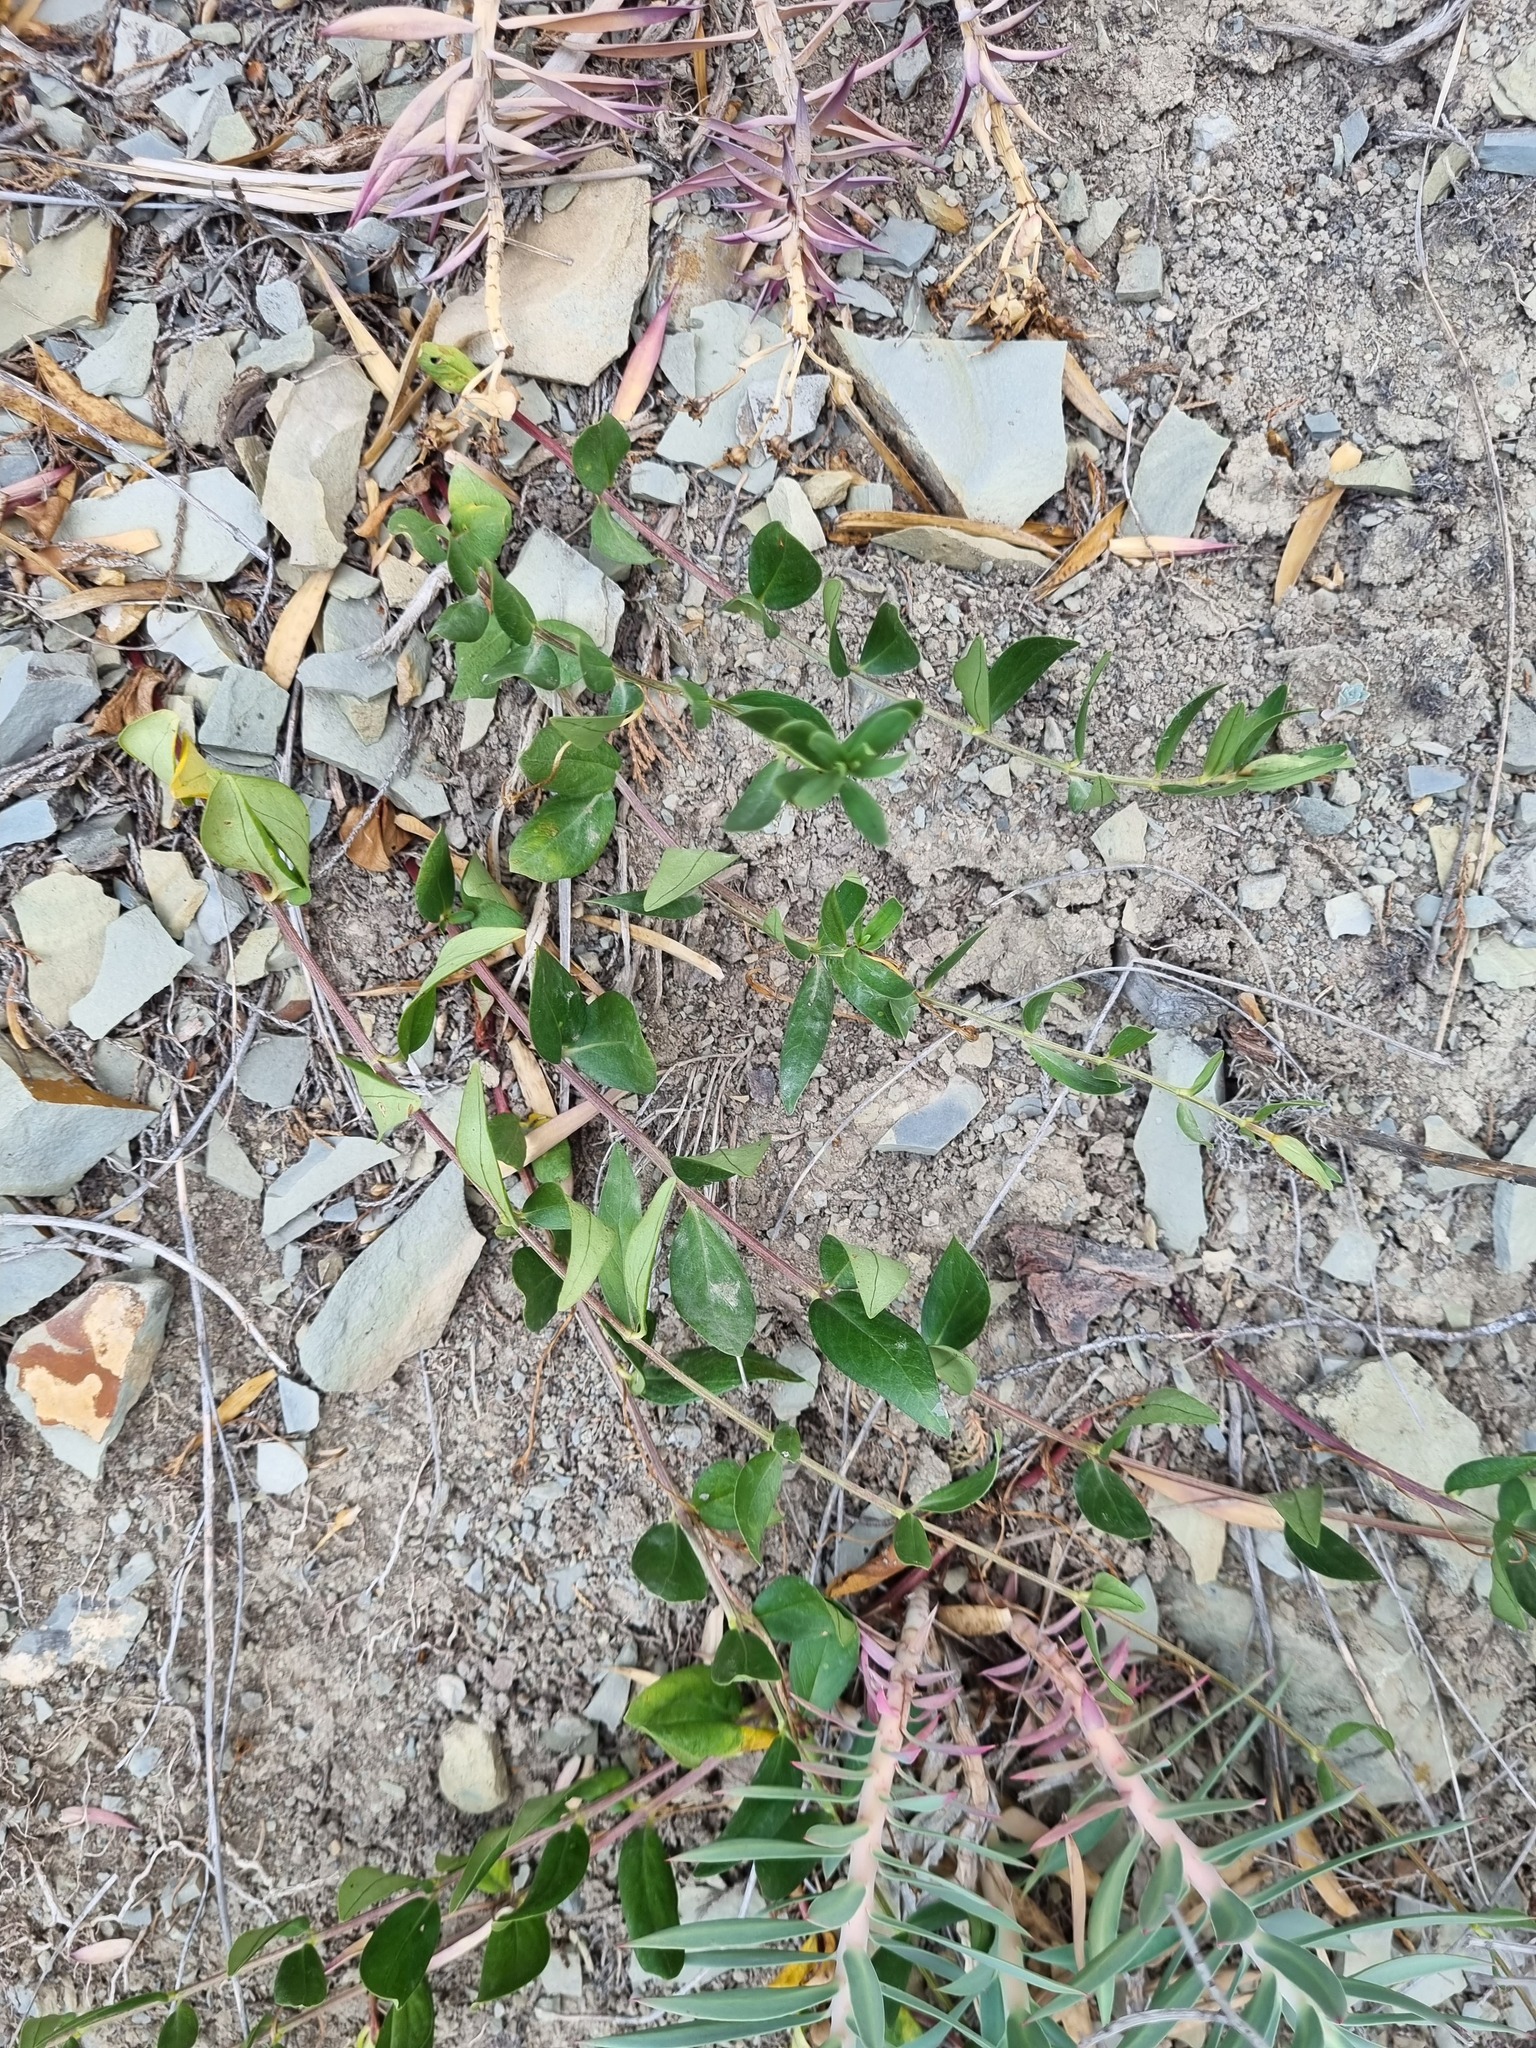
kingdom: Plantae
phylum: Tracheophyta
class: Magnoliopsida
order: Gentianales
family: Apocynaceae
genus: Vinca
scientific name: Vinca herbacea
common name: Herbaceous periwinkle
